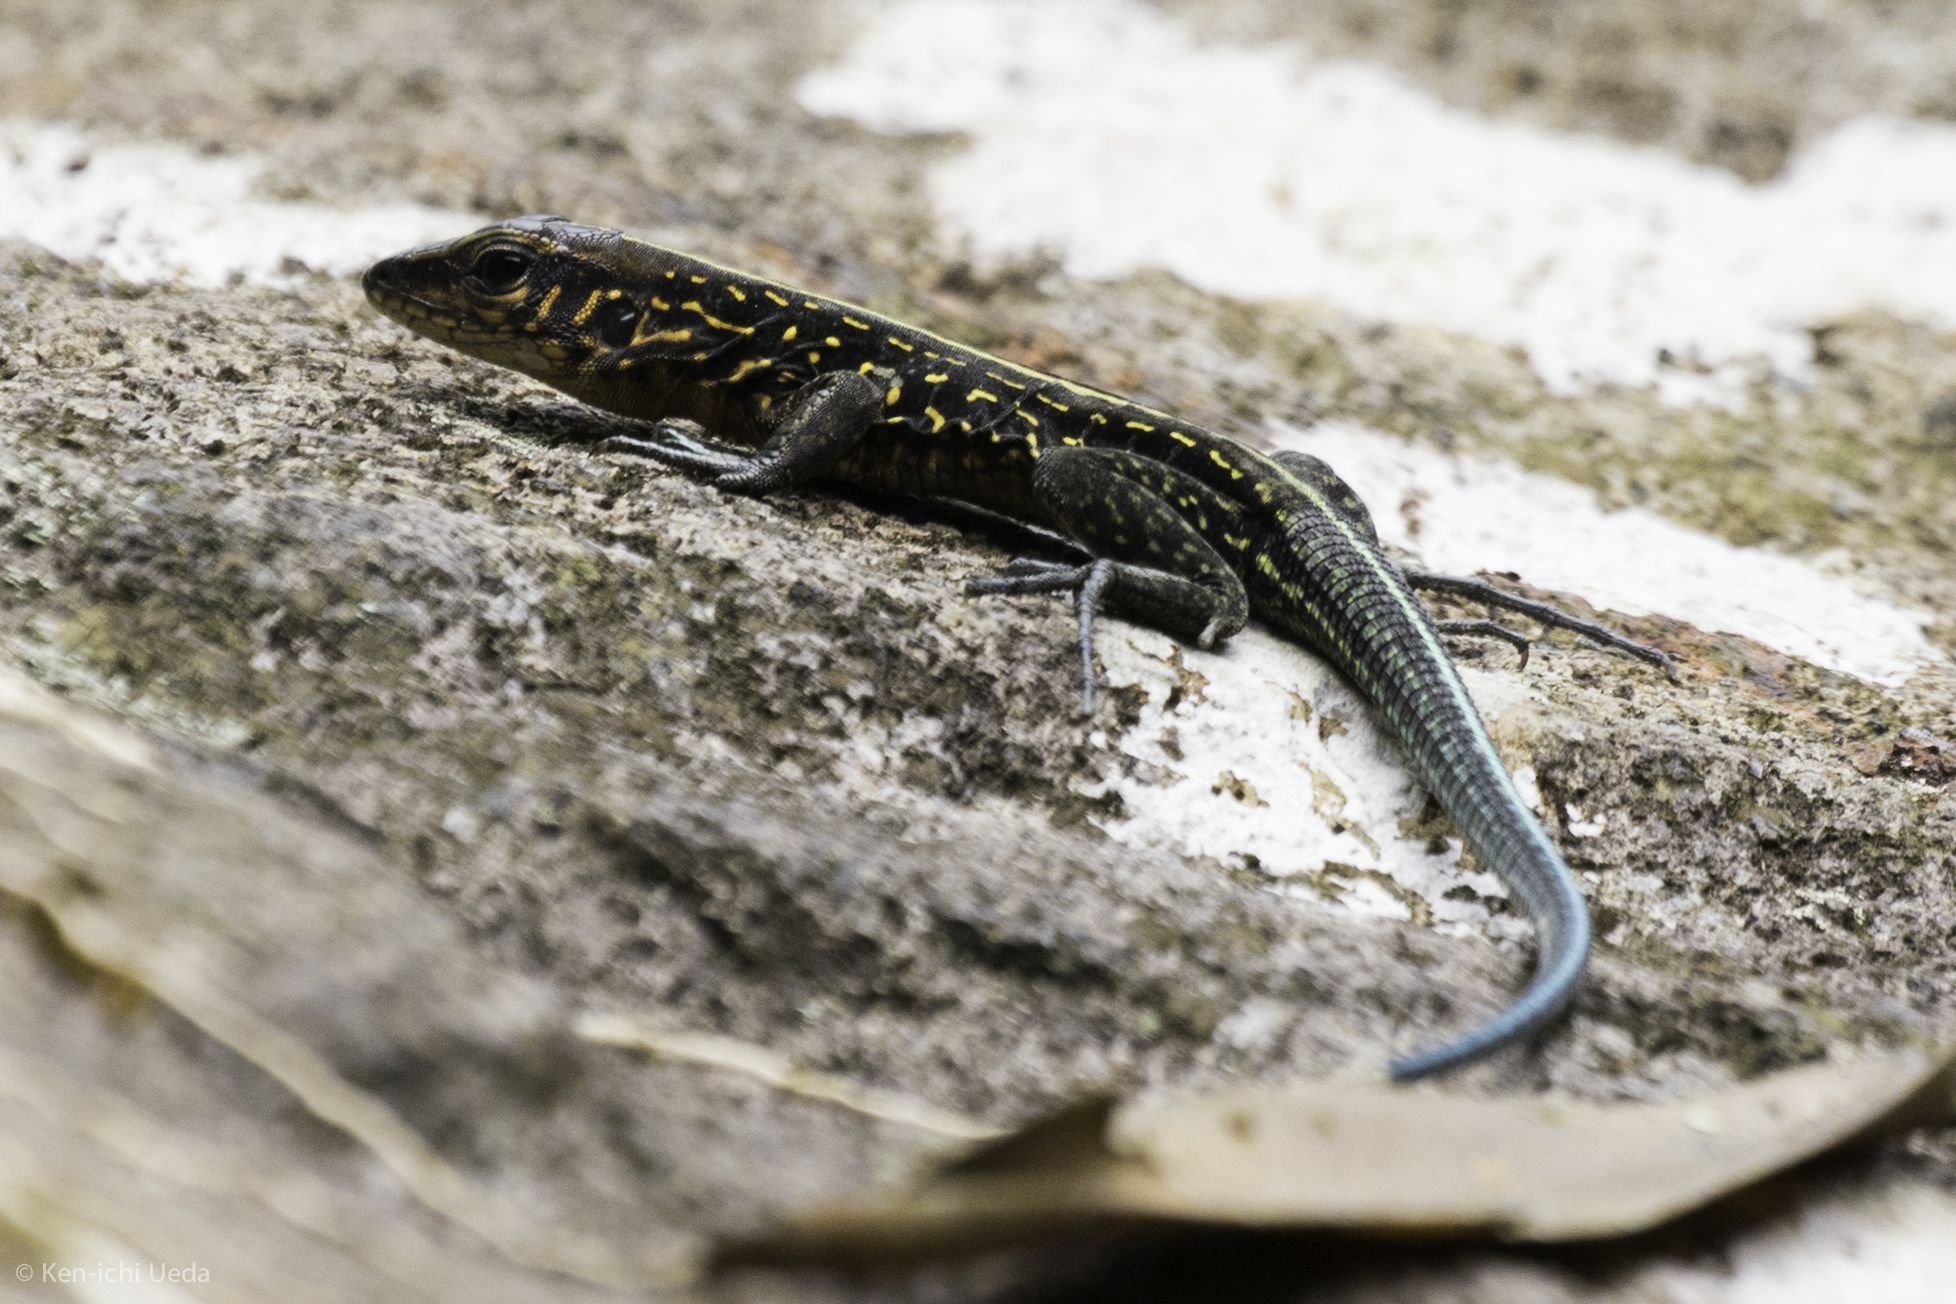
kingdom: Animalia
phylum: Chordata
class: Squamata
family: Teiidae
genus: Holcosus
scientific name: Holcosus festivus
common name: Middle american ameiva
